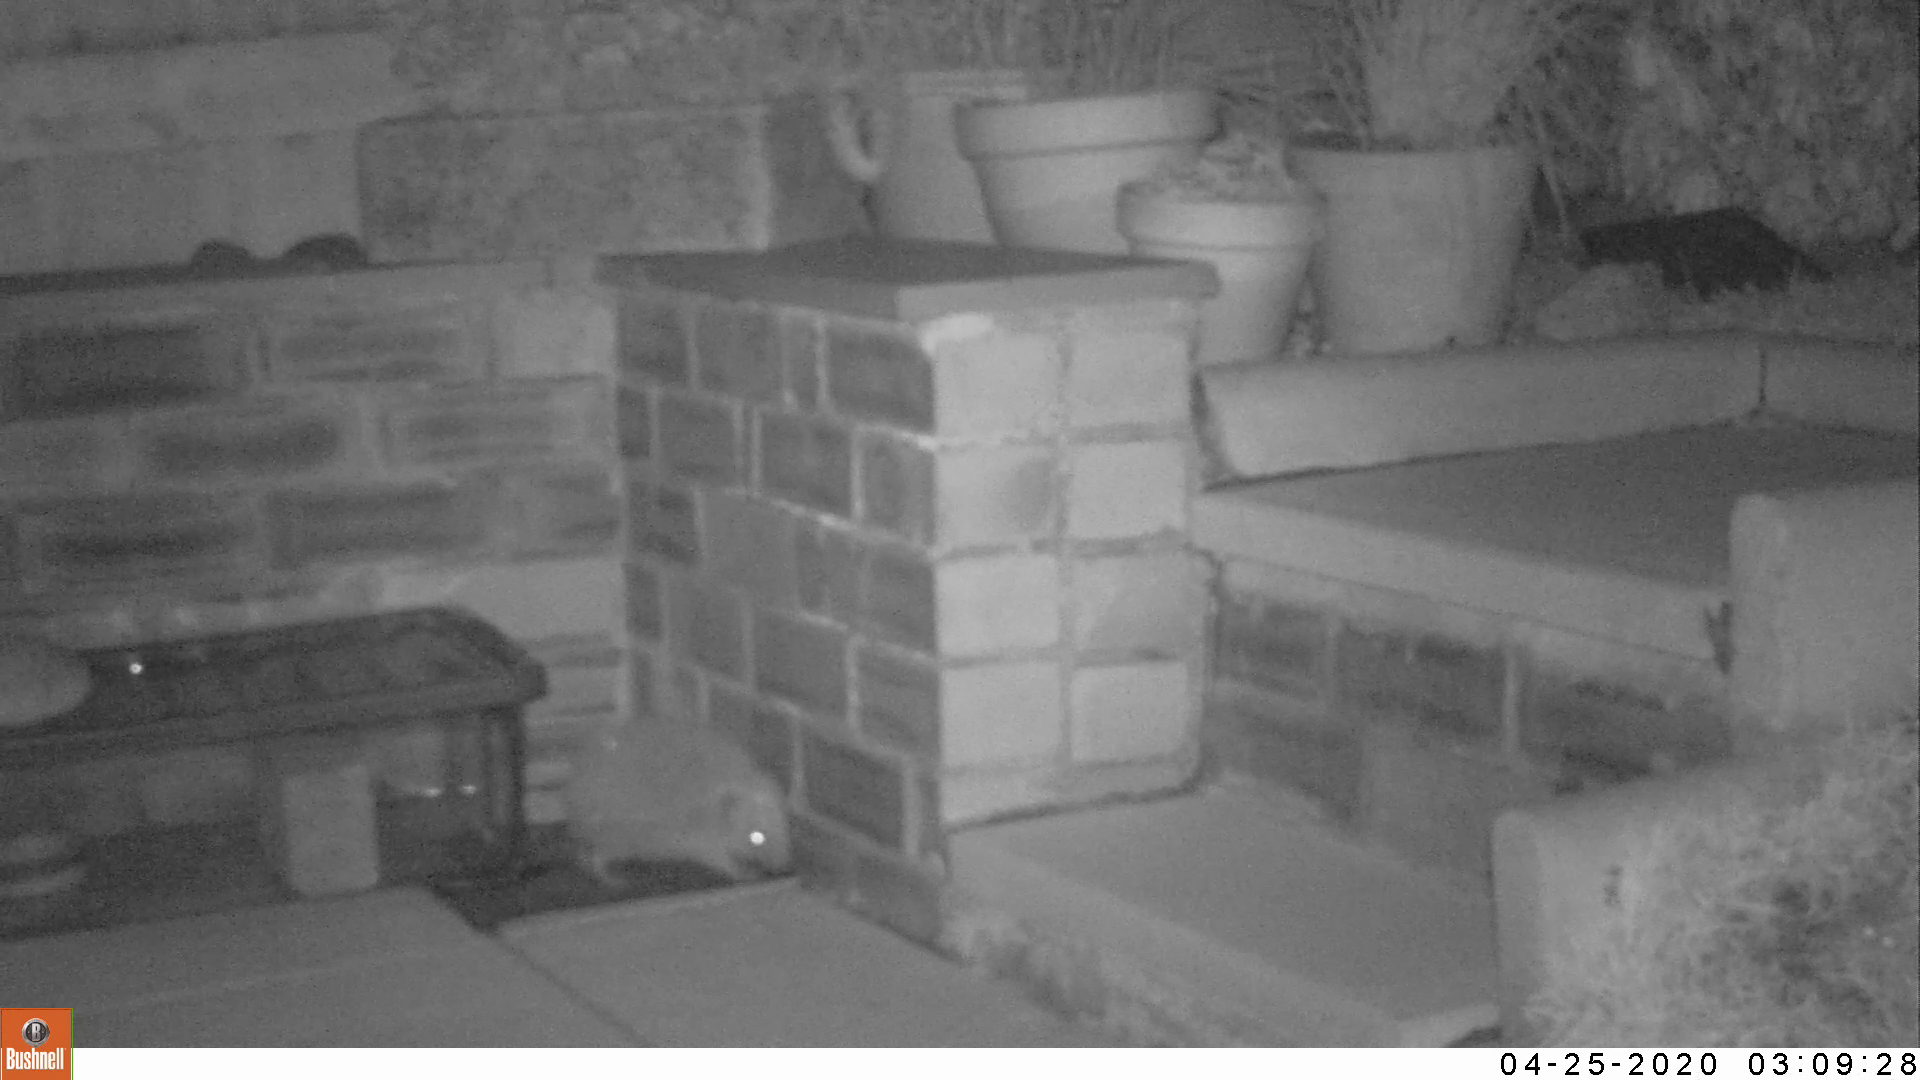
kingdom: Animalia
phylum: Chordata
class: Mammalia
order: Erinaceomorpha
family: Erinaceidae
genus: Erinaceus
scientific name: Erinaceus europaeus
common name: West european hedgehog
